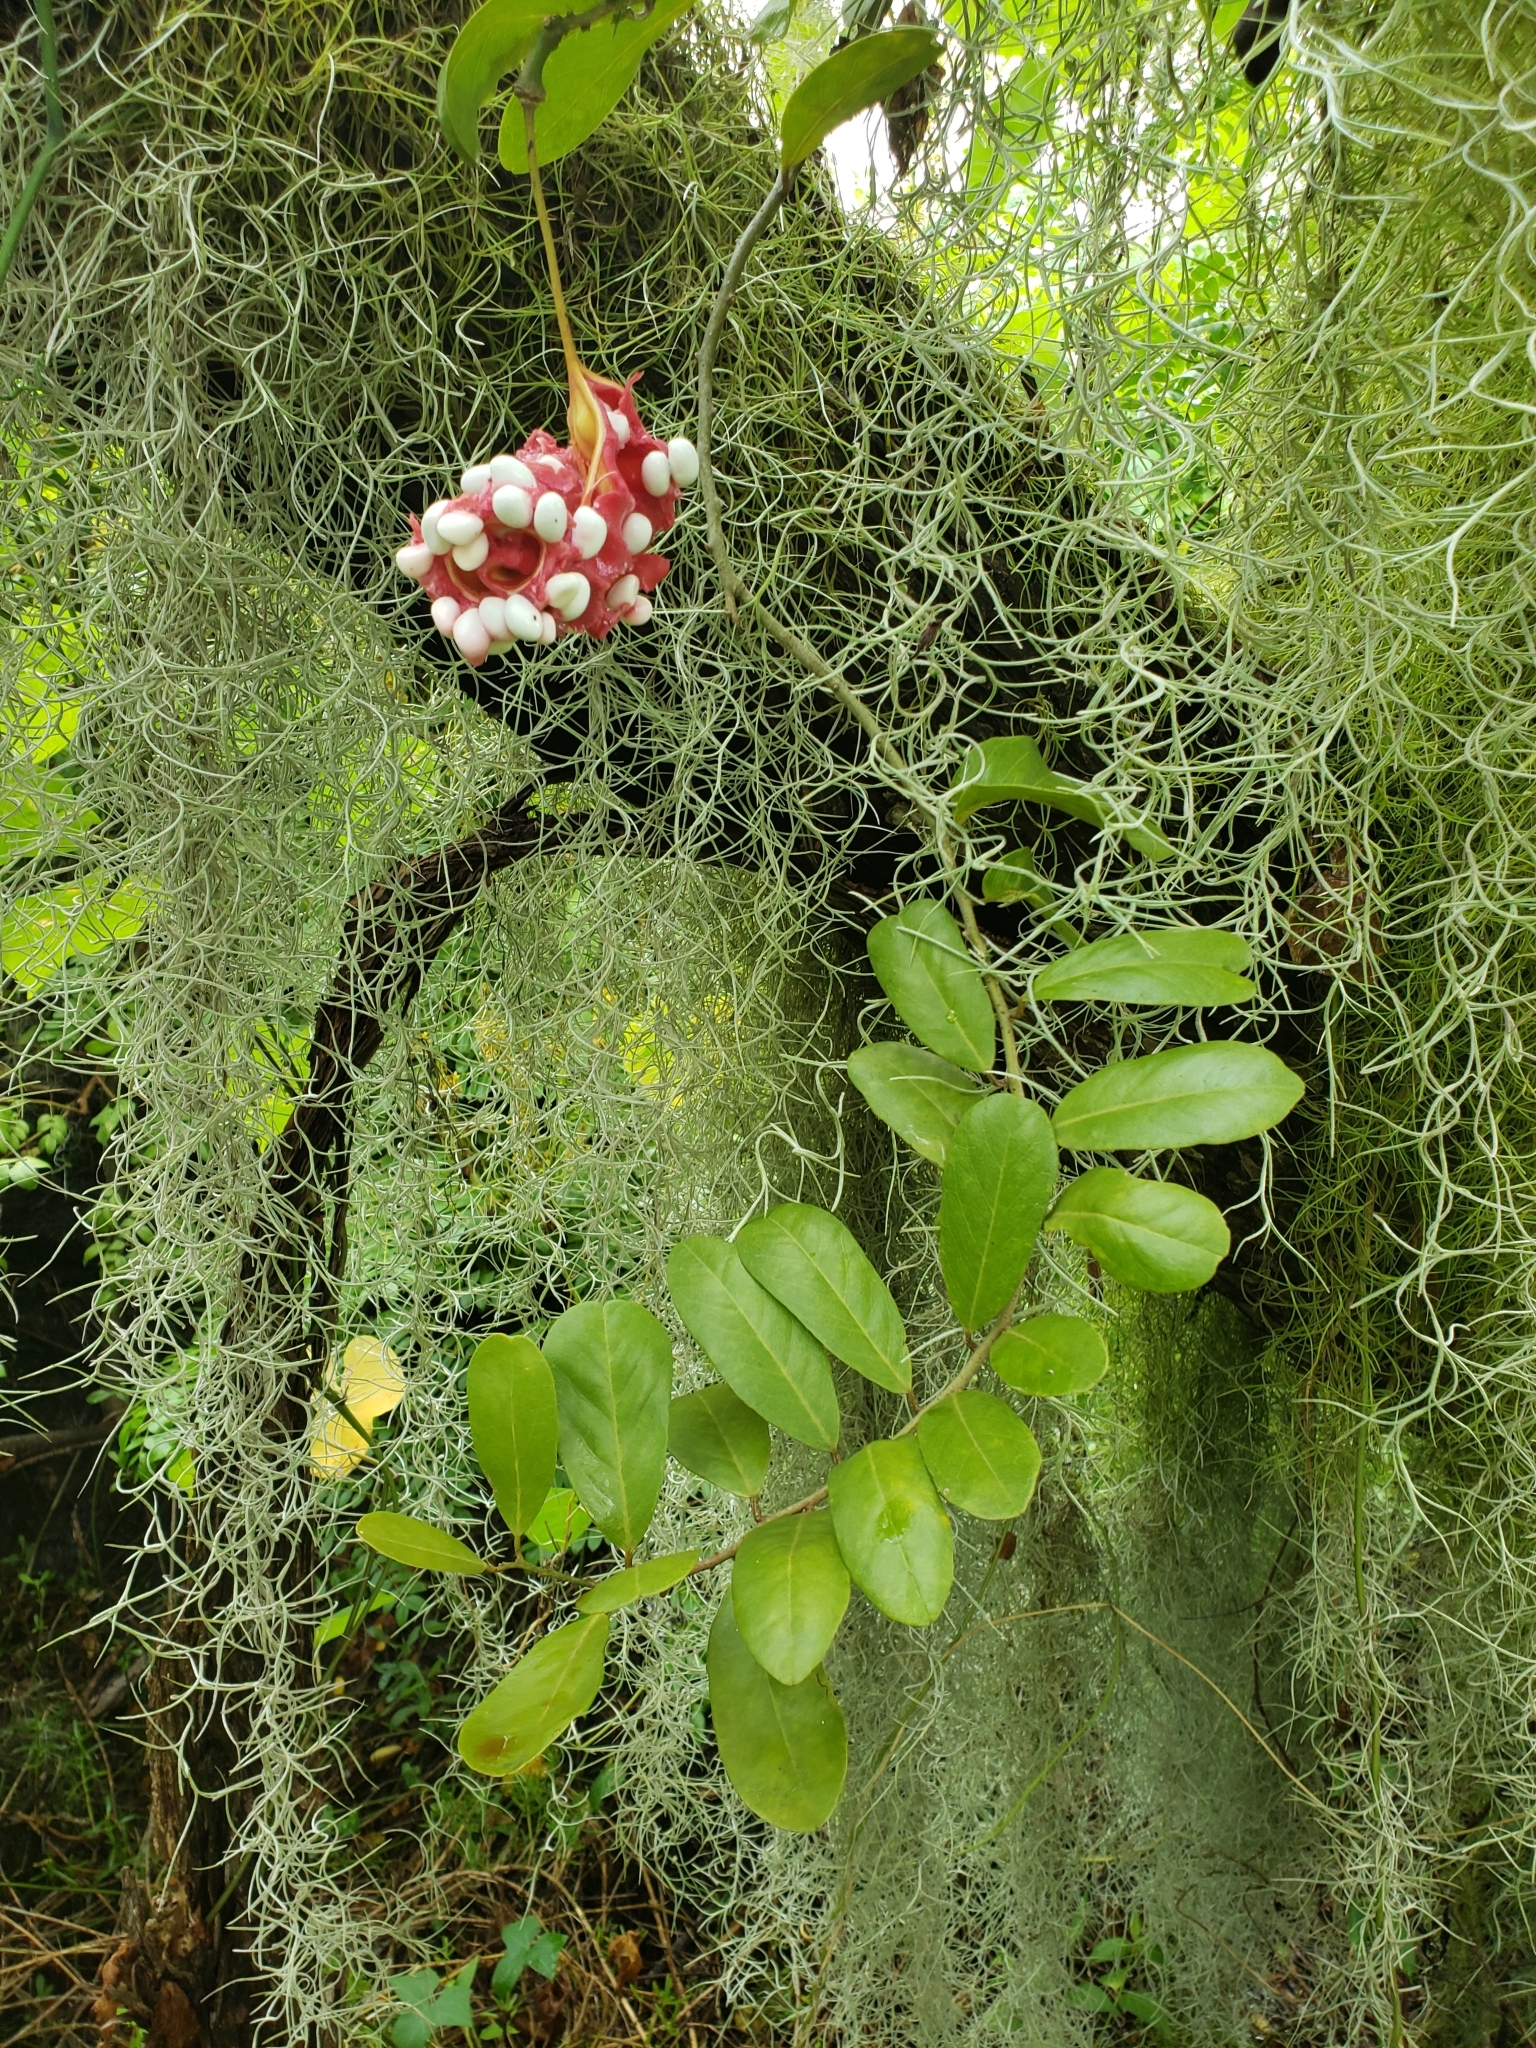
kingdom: Plantae
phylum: Tracheophyta
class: Magnoliopsida
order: Brassicales
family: Capparaceae
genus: Cynophalla
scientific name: Cynophalla flexuosa
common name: Capertree
